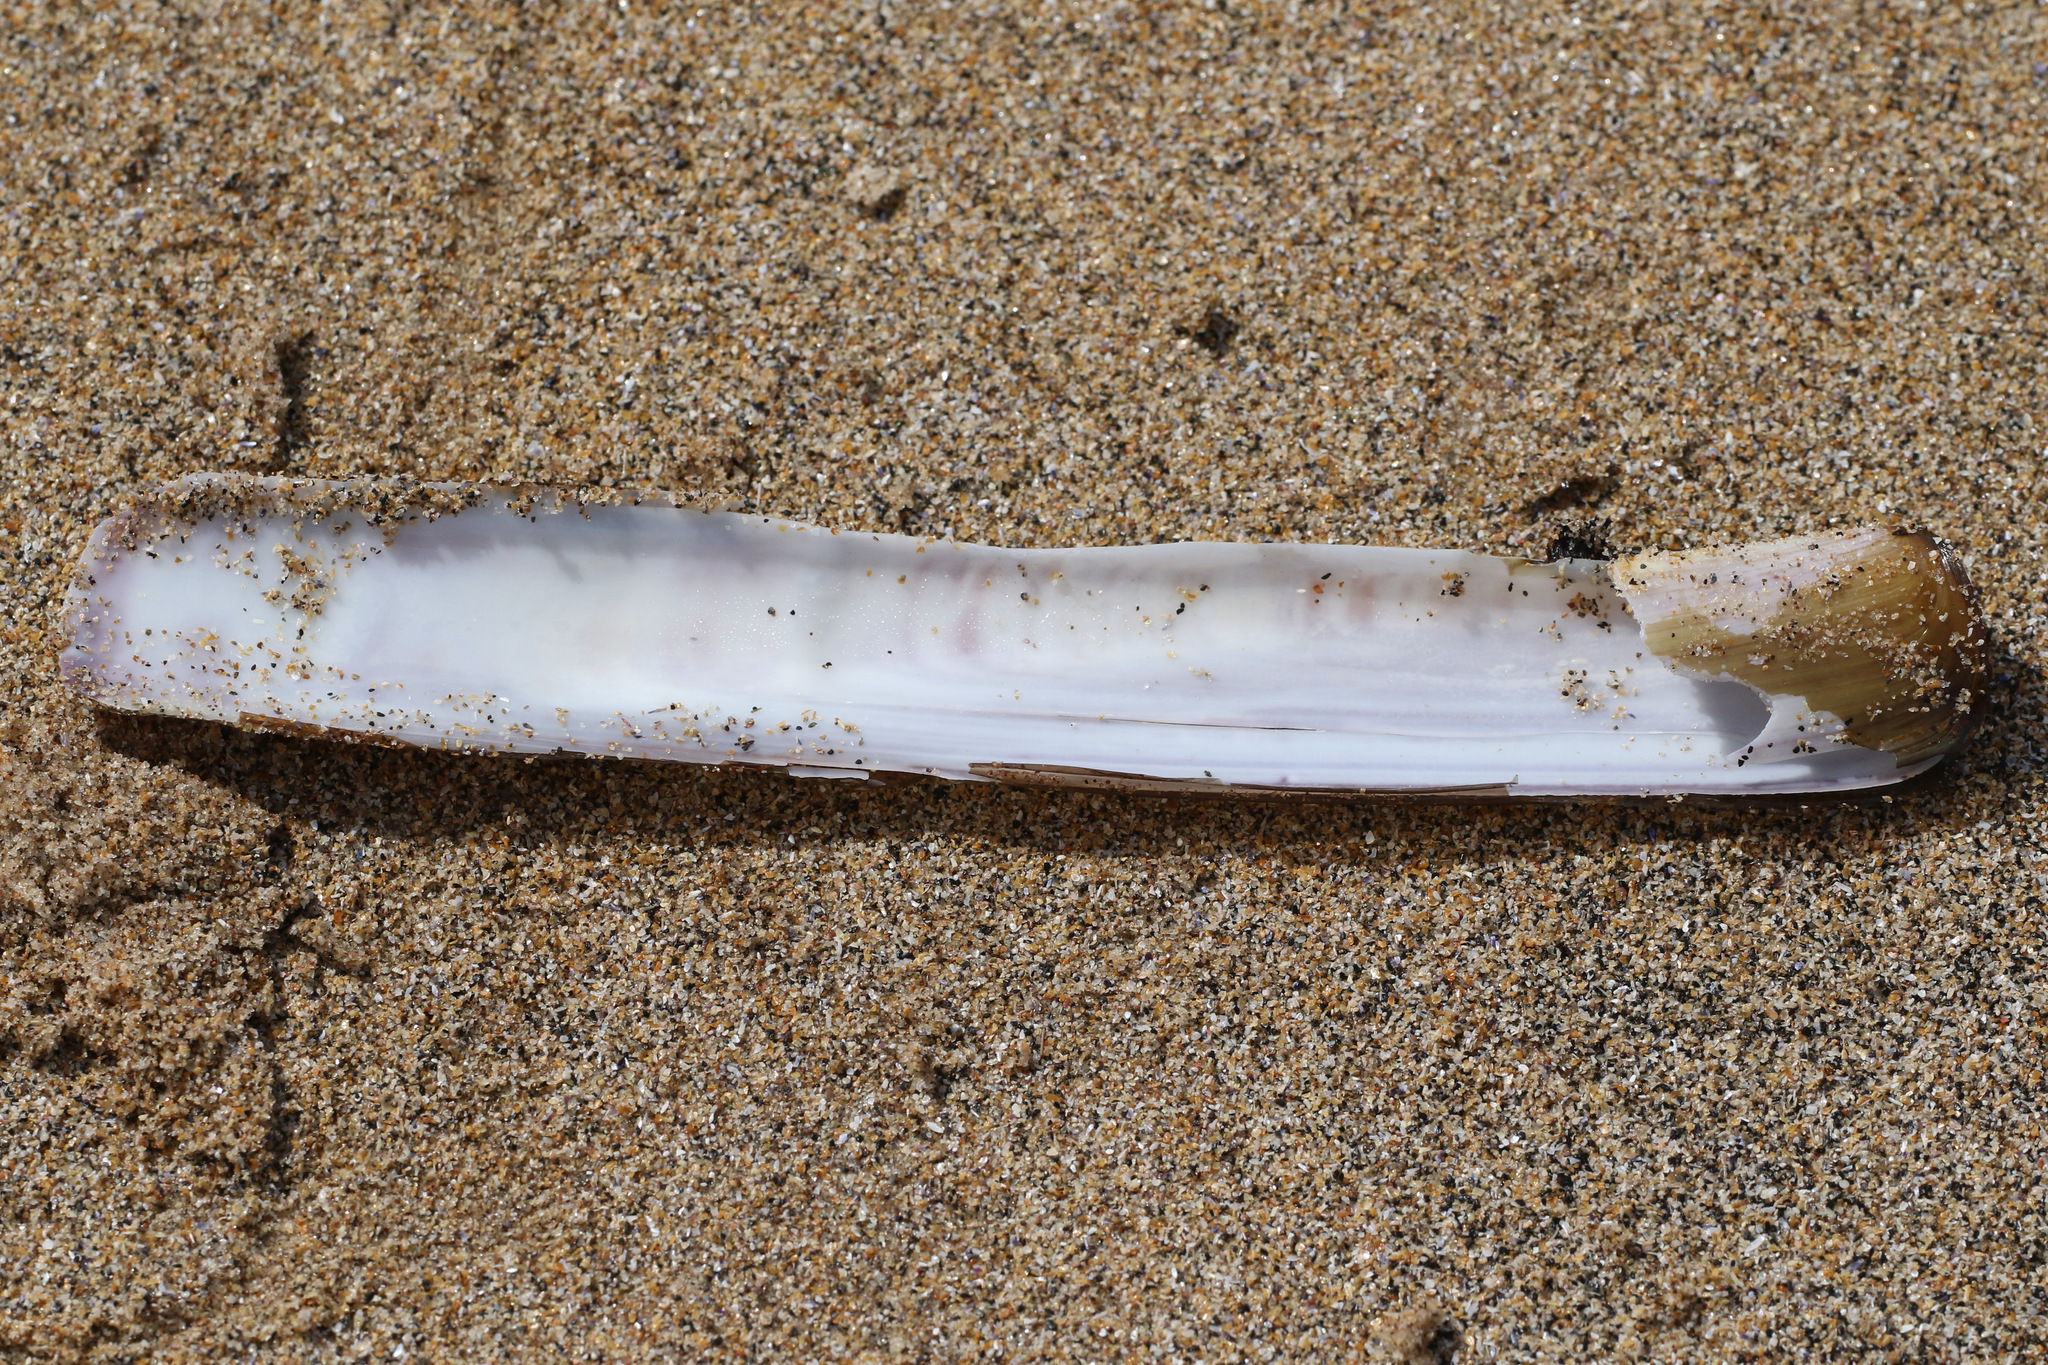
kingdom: Animalia
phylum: Mollusca
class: Bivalvia
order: Adapedonta
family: Pharidae
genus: Ensis
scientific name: Ensis siliqua
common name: Pod razor shell
